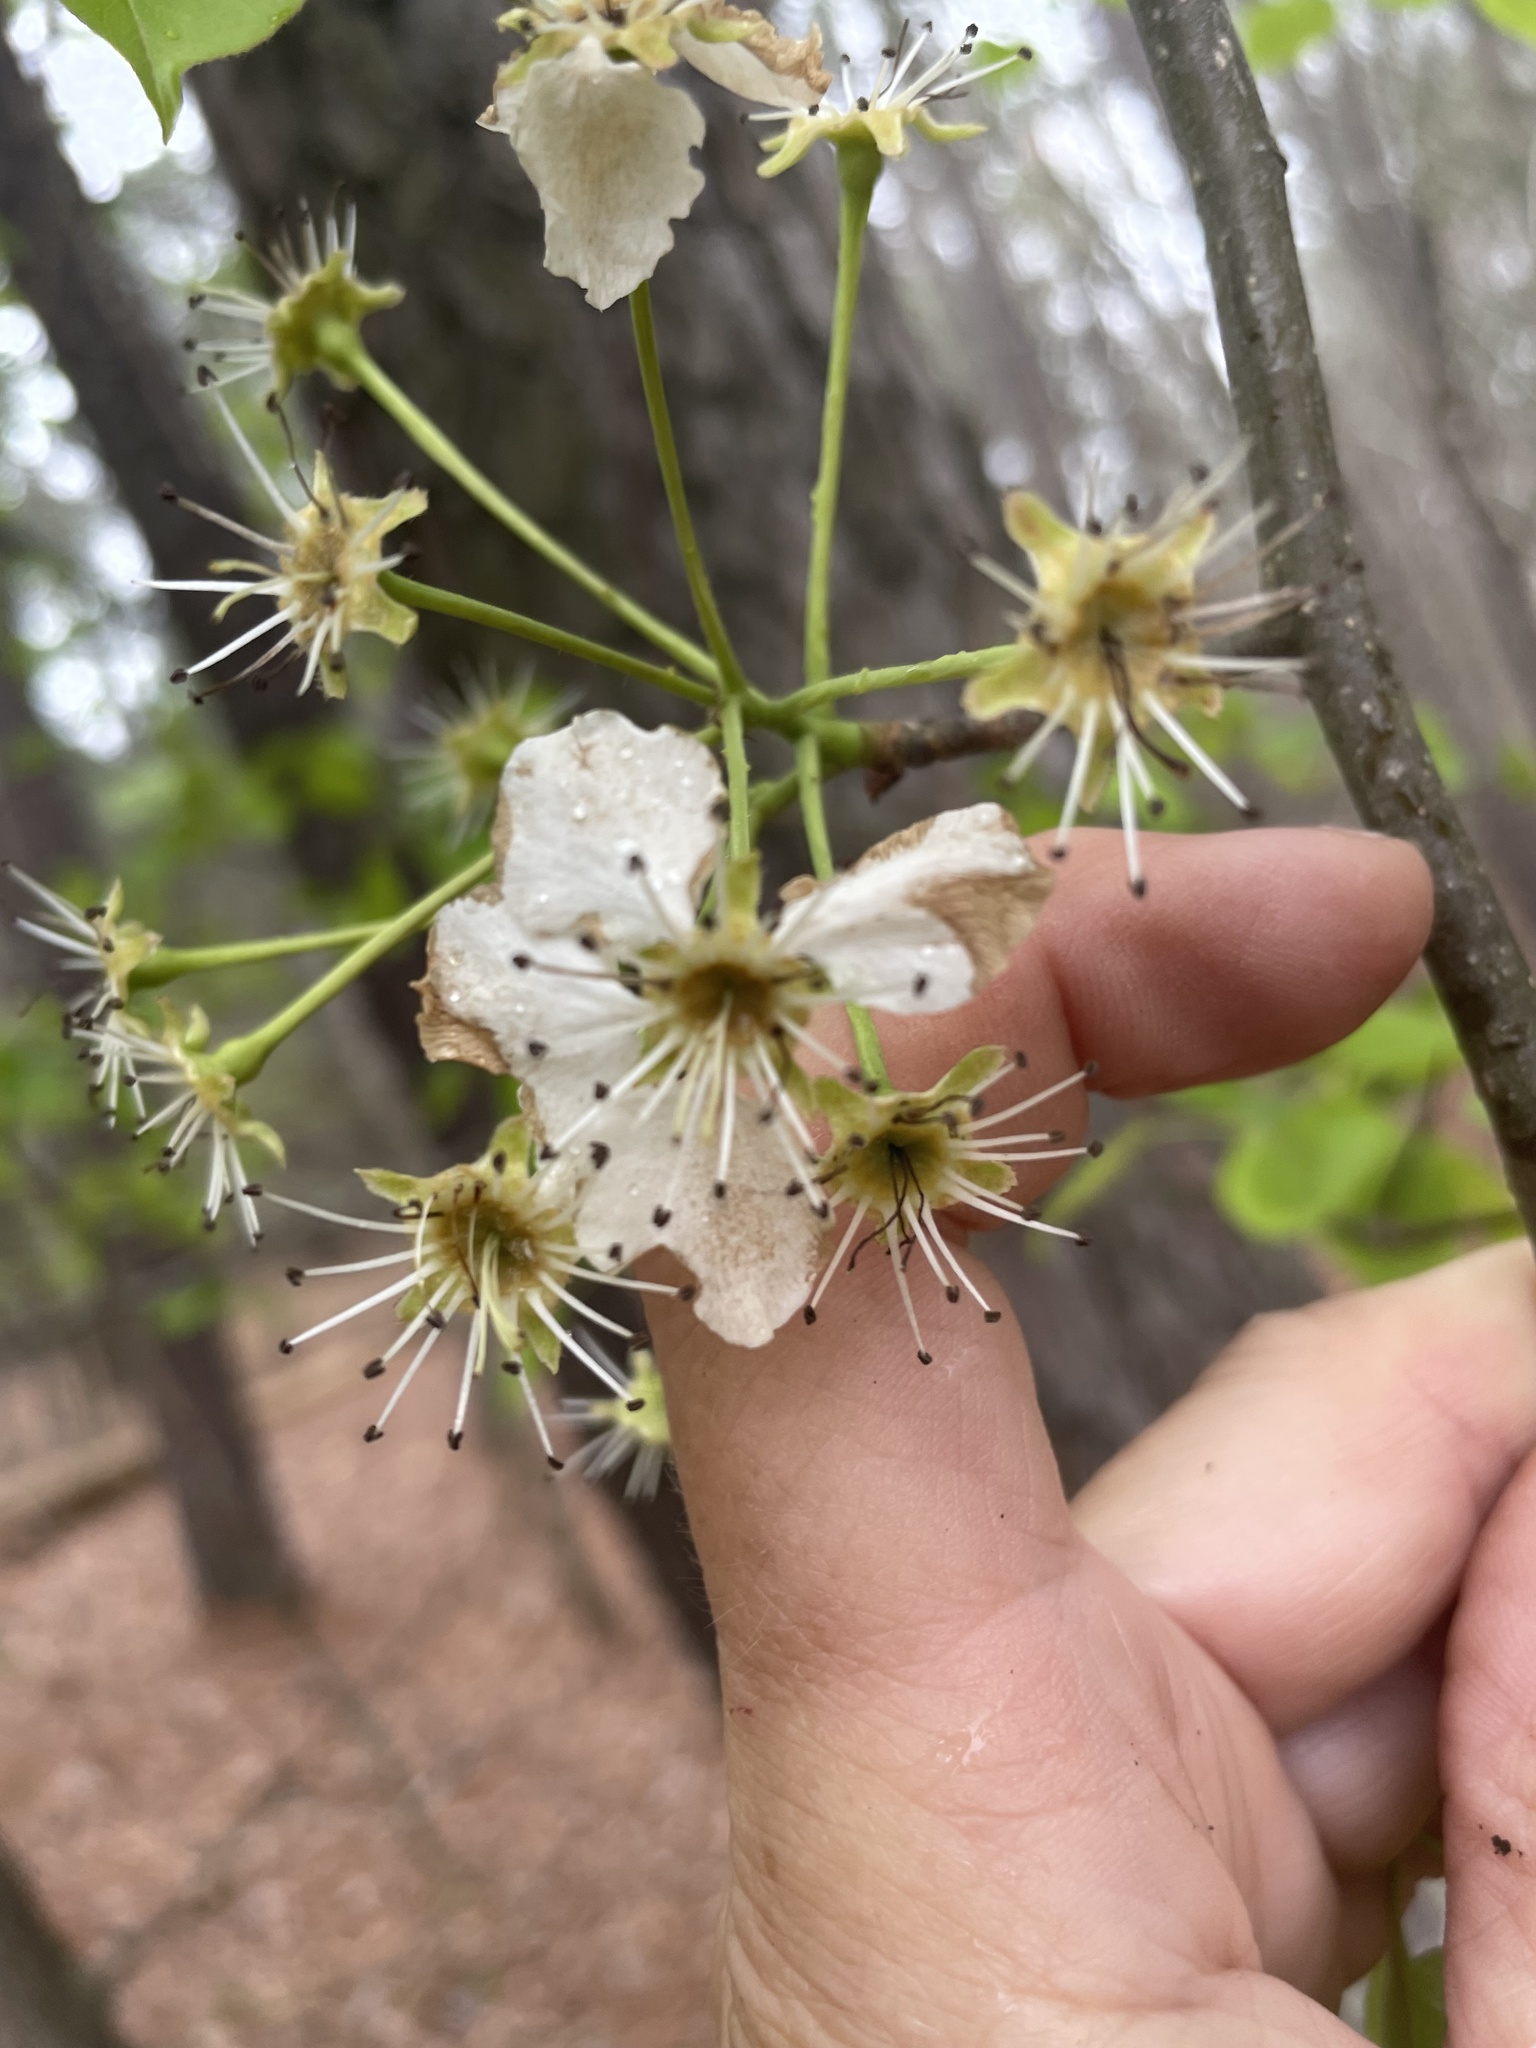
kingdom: Plantae
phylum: Tracheophyta
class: Magnoliopsida
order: Rosales
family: Rosaceae
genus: Pyrus
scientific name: Pyrus calleryana
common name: Callery pear
